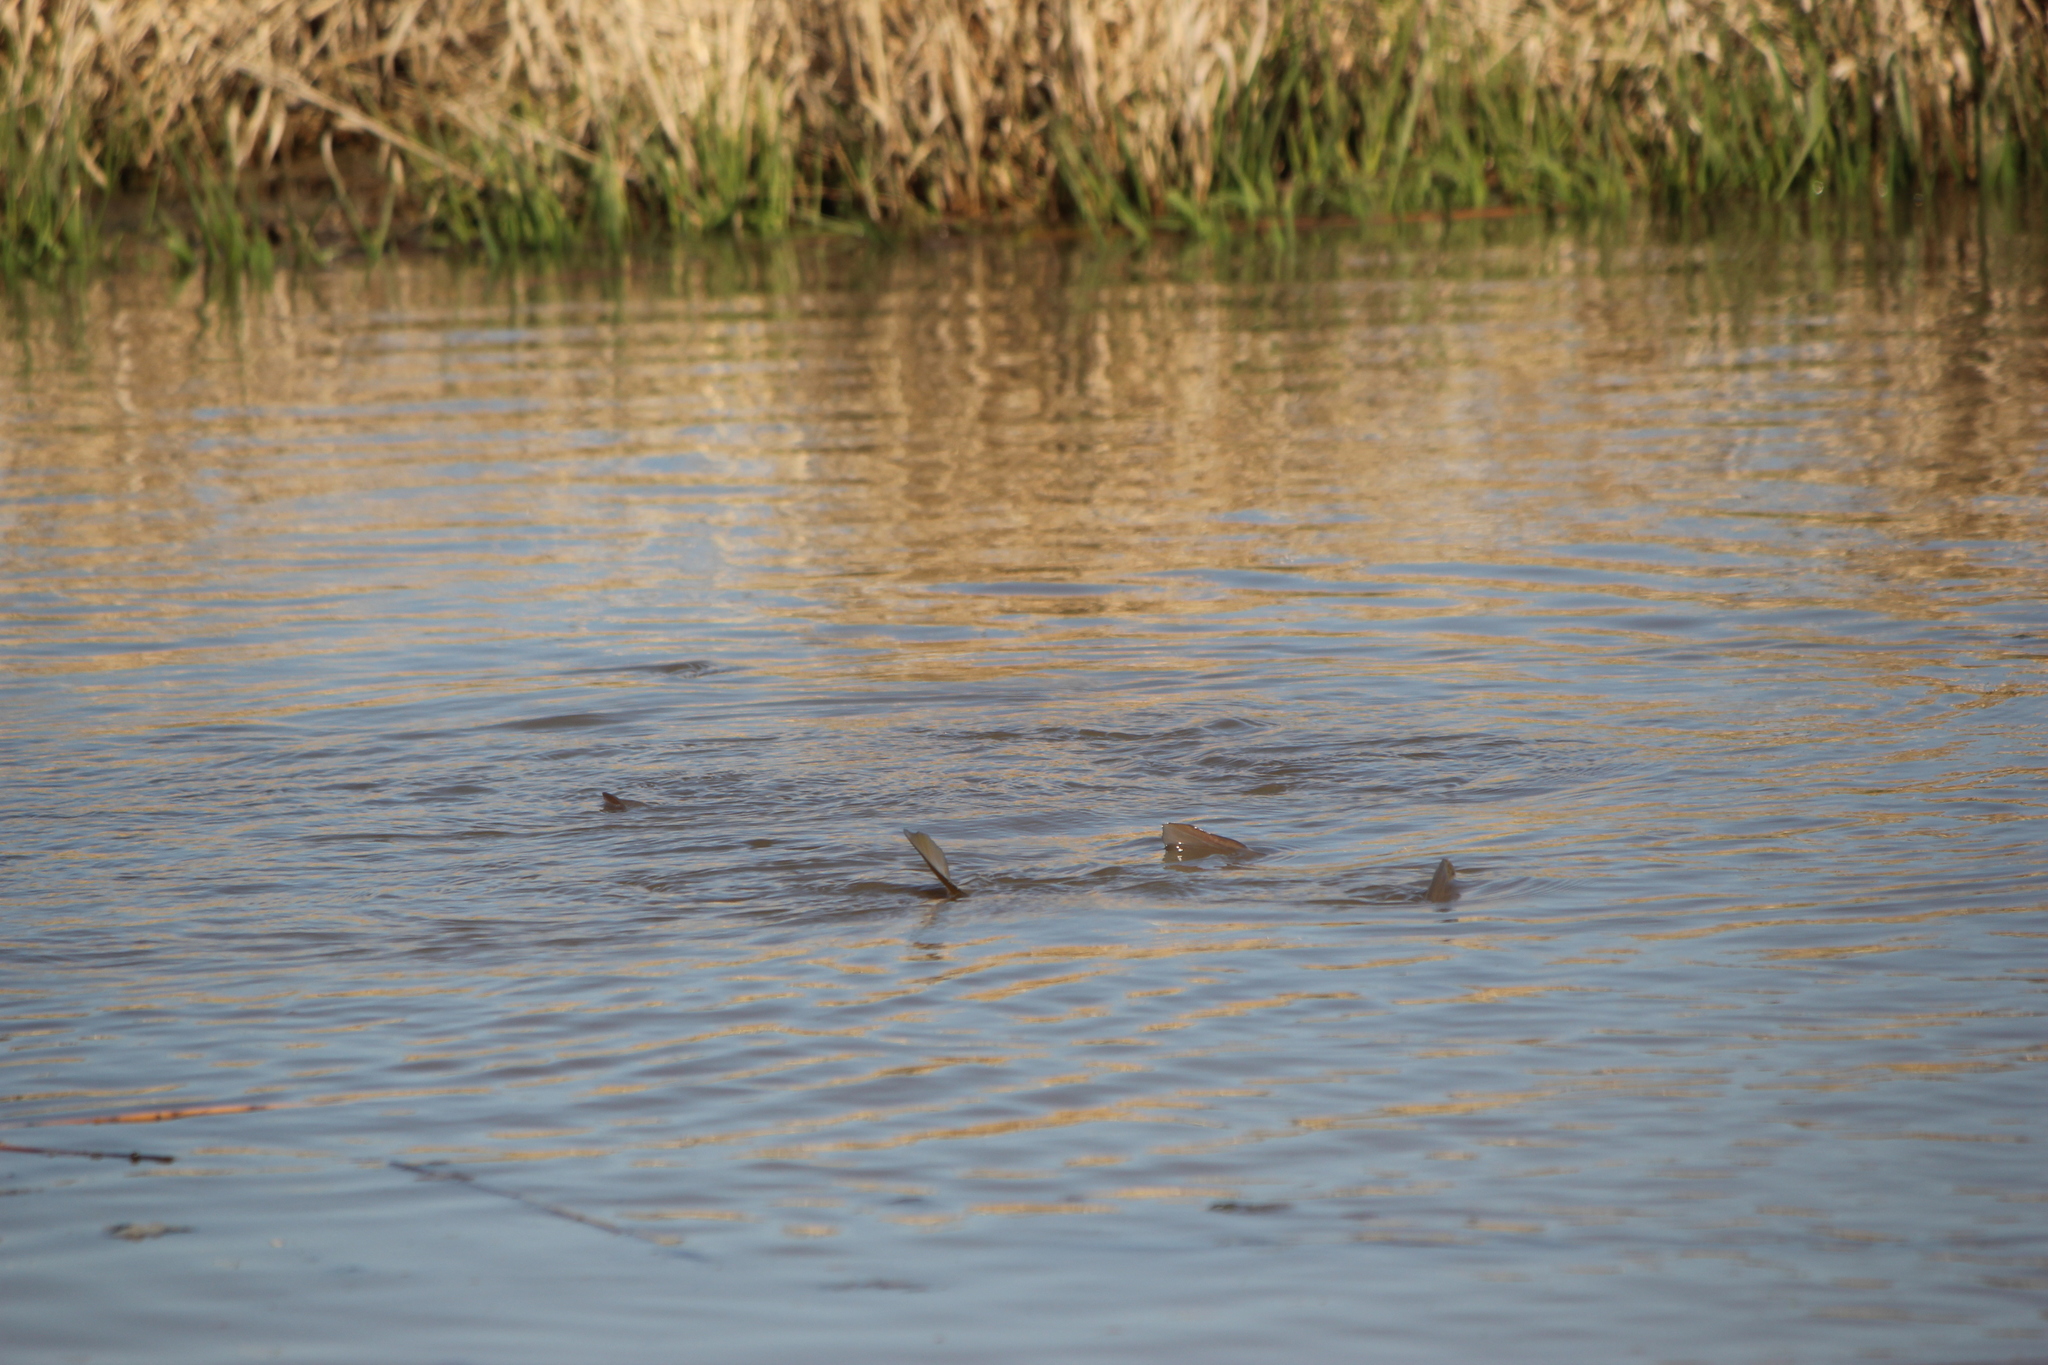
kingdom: Animalia
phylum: Chordata
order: Cypriniformes
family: Cyprinidae
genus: Cyprinus
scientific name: Cyprinus carpio
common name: Common carp
